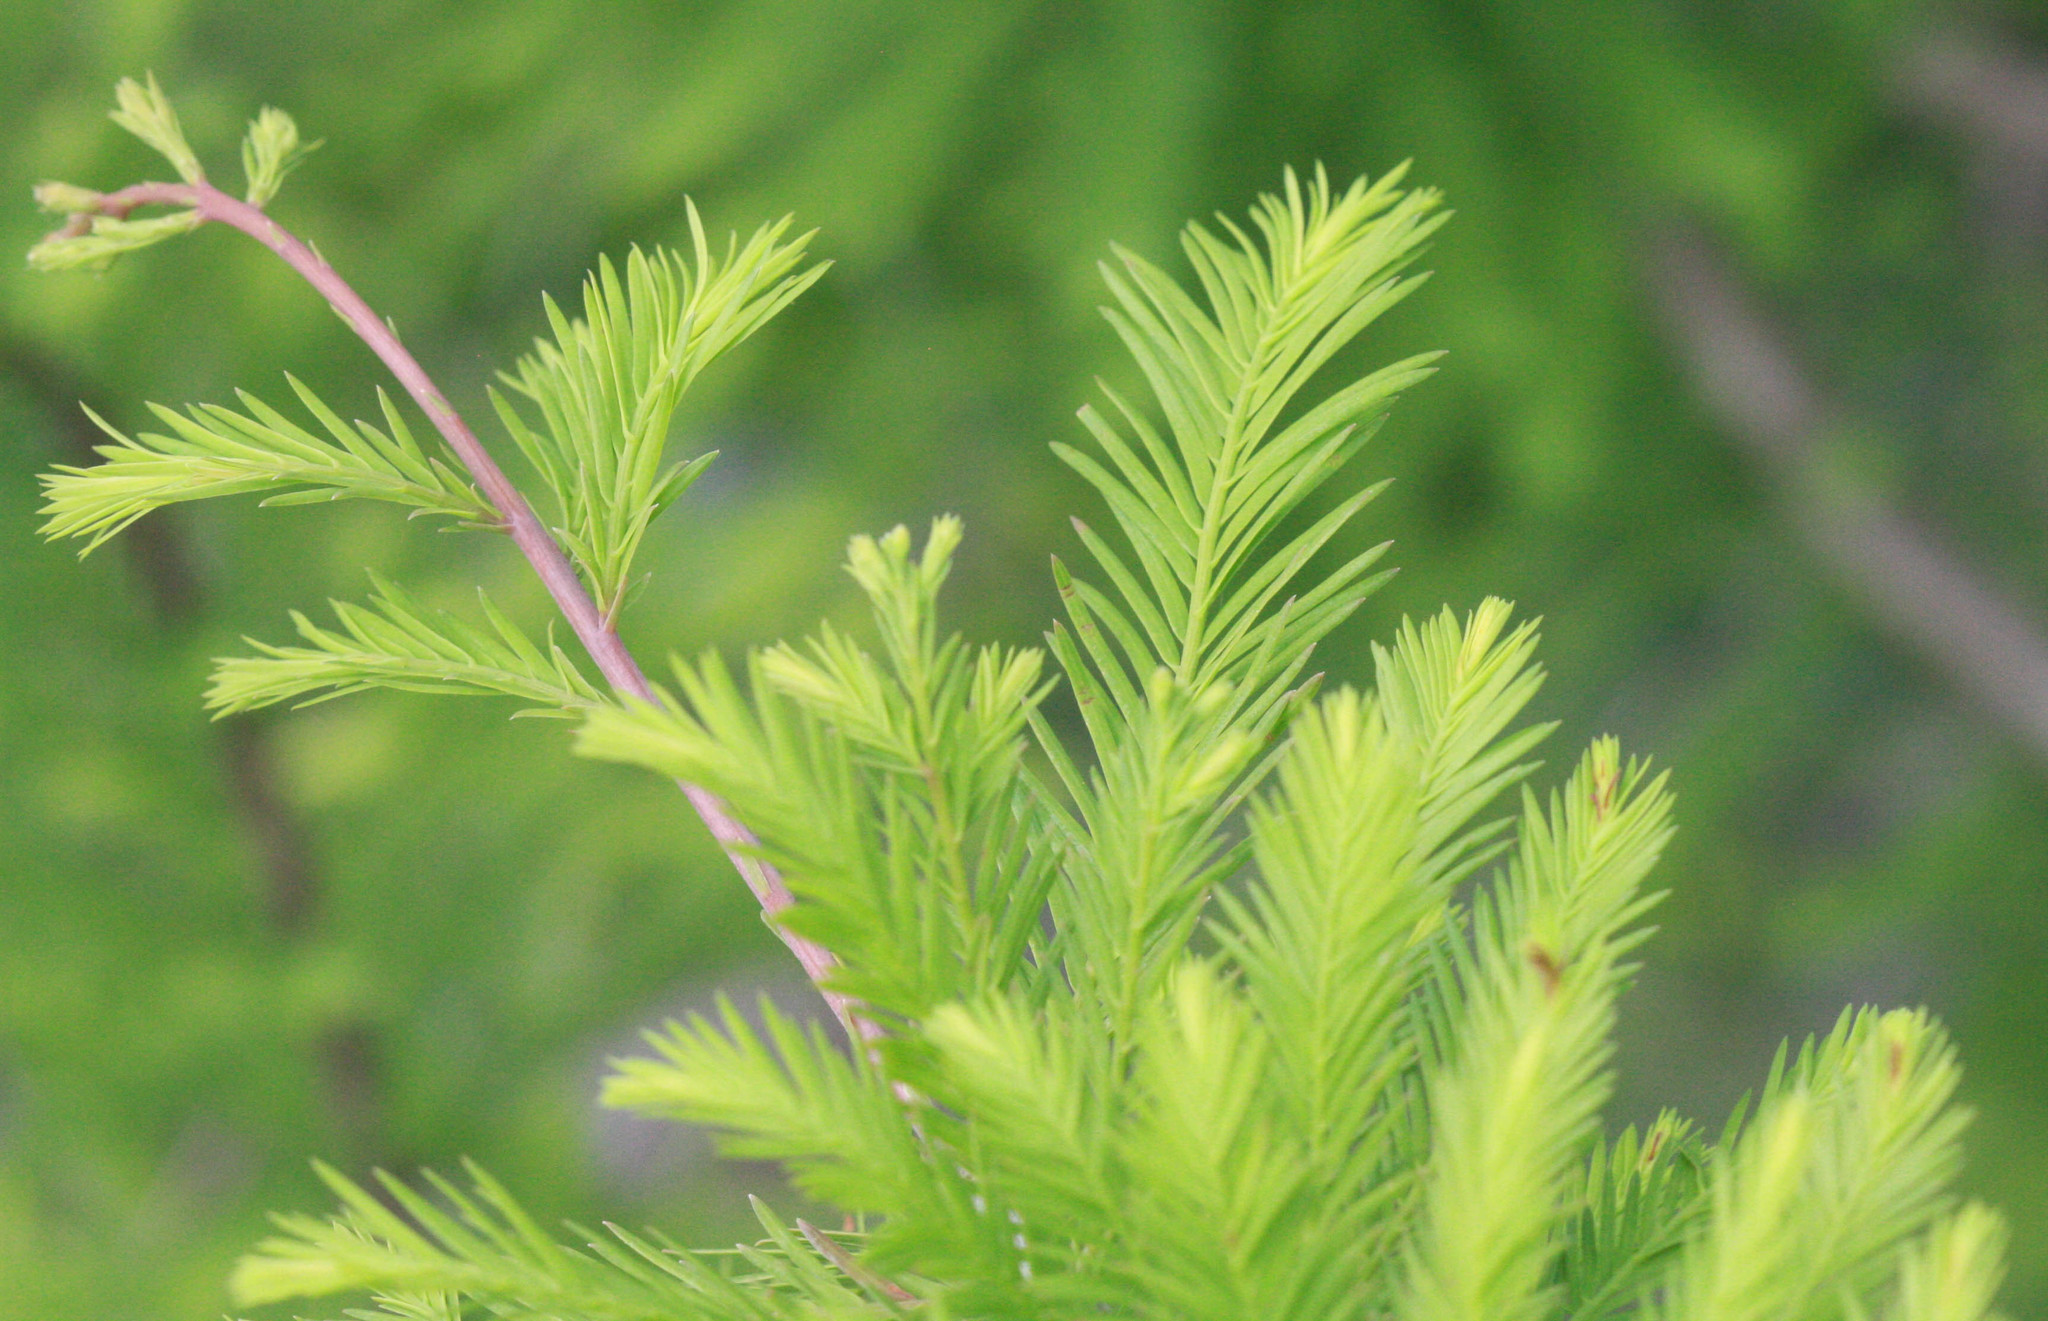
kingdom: Plantae
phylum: Tracheophyta
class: Pinopsida
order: Pinales
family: Cupressaceae
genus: Taxodium
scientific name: Taxodium distichum
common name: Bald cypress
